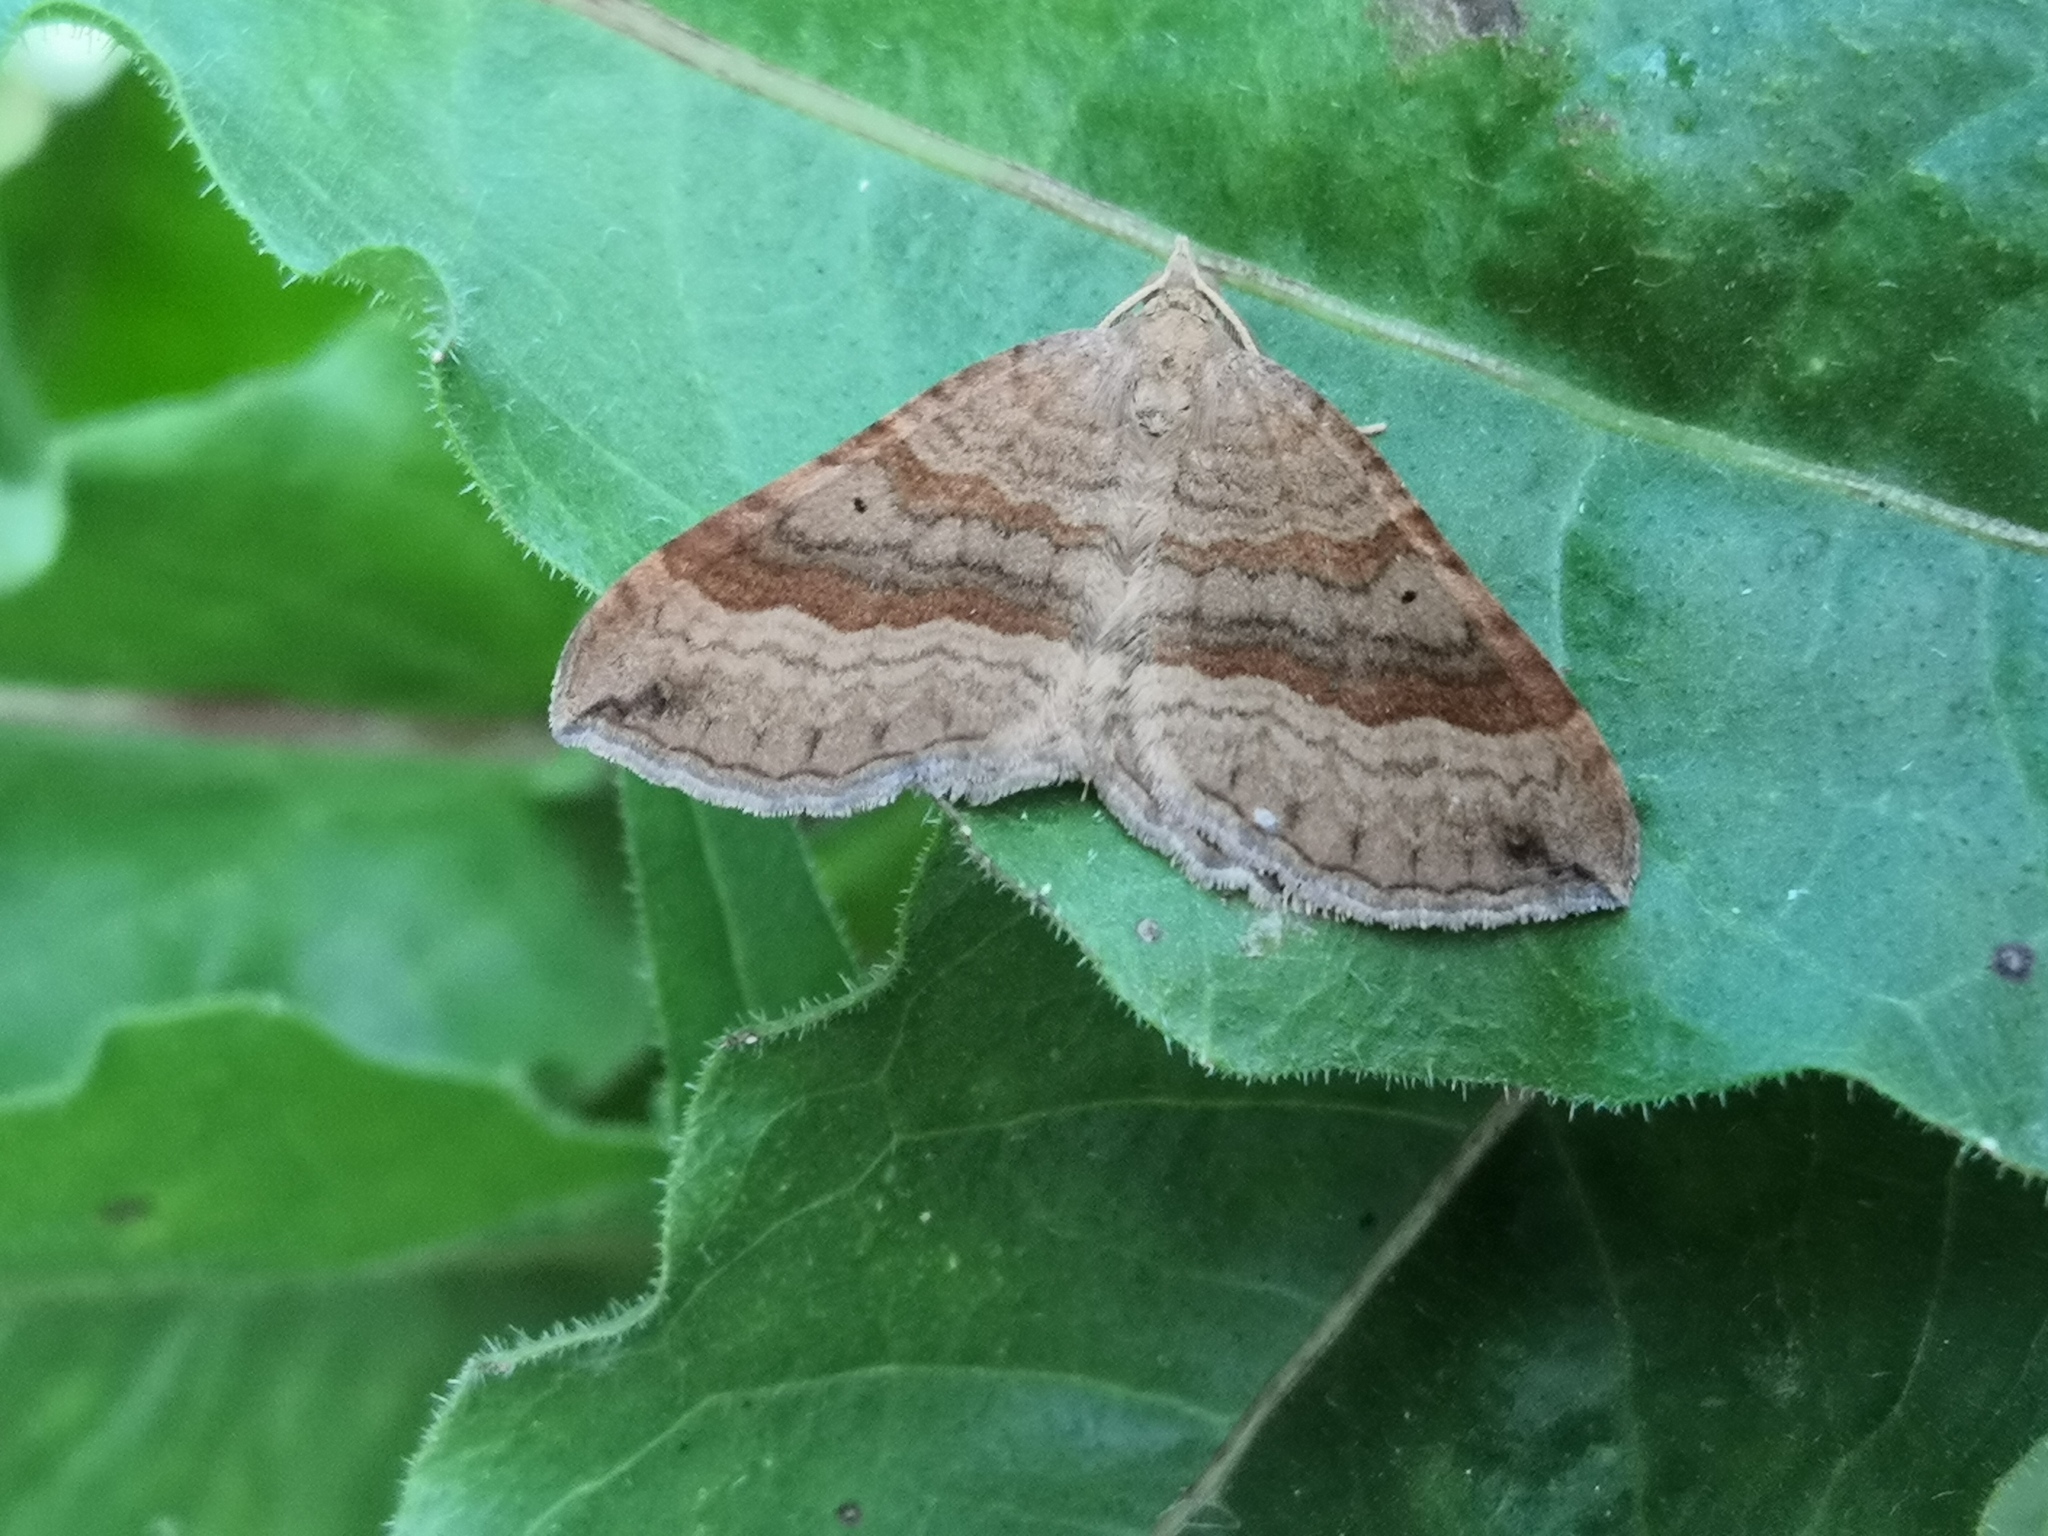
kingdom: Animalia
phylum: Arthropoda
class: Insecta
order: Lepidoptera
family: Geometridae
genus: Scotopteryx
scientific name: Scotopteryx chenopodiata
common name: Shaded broad-bar
